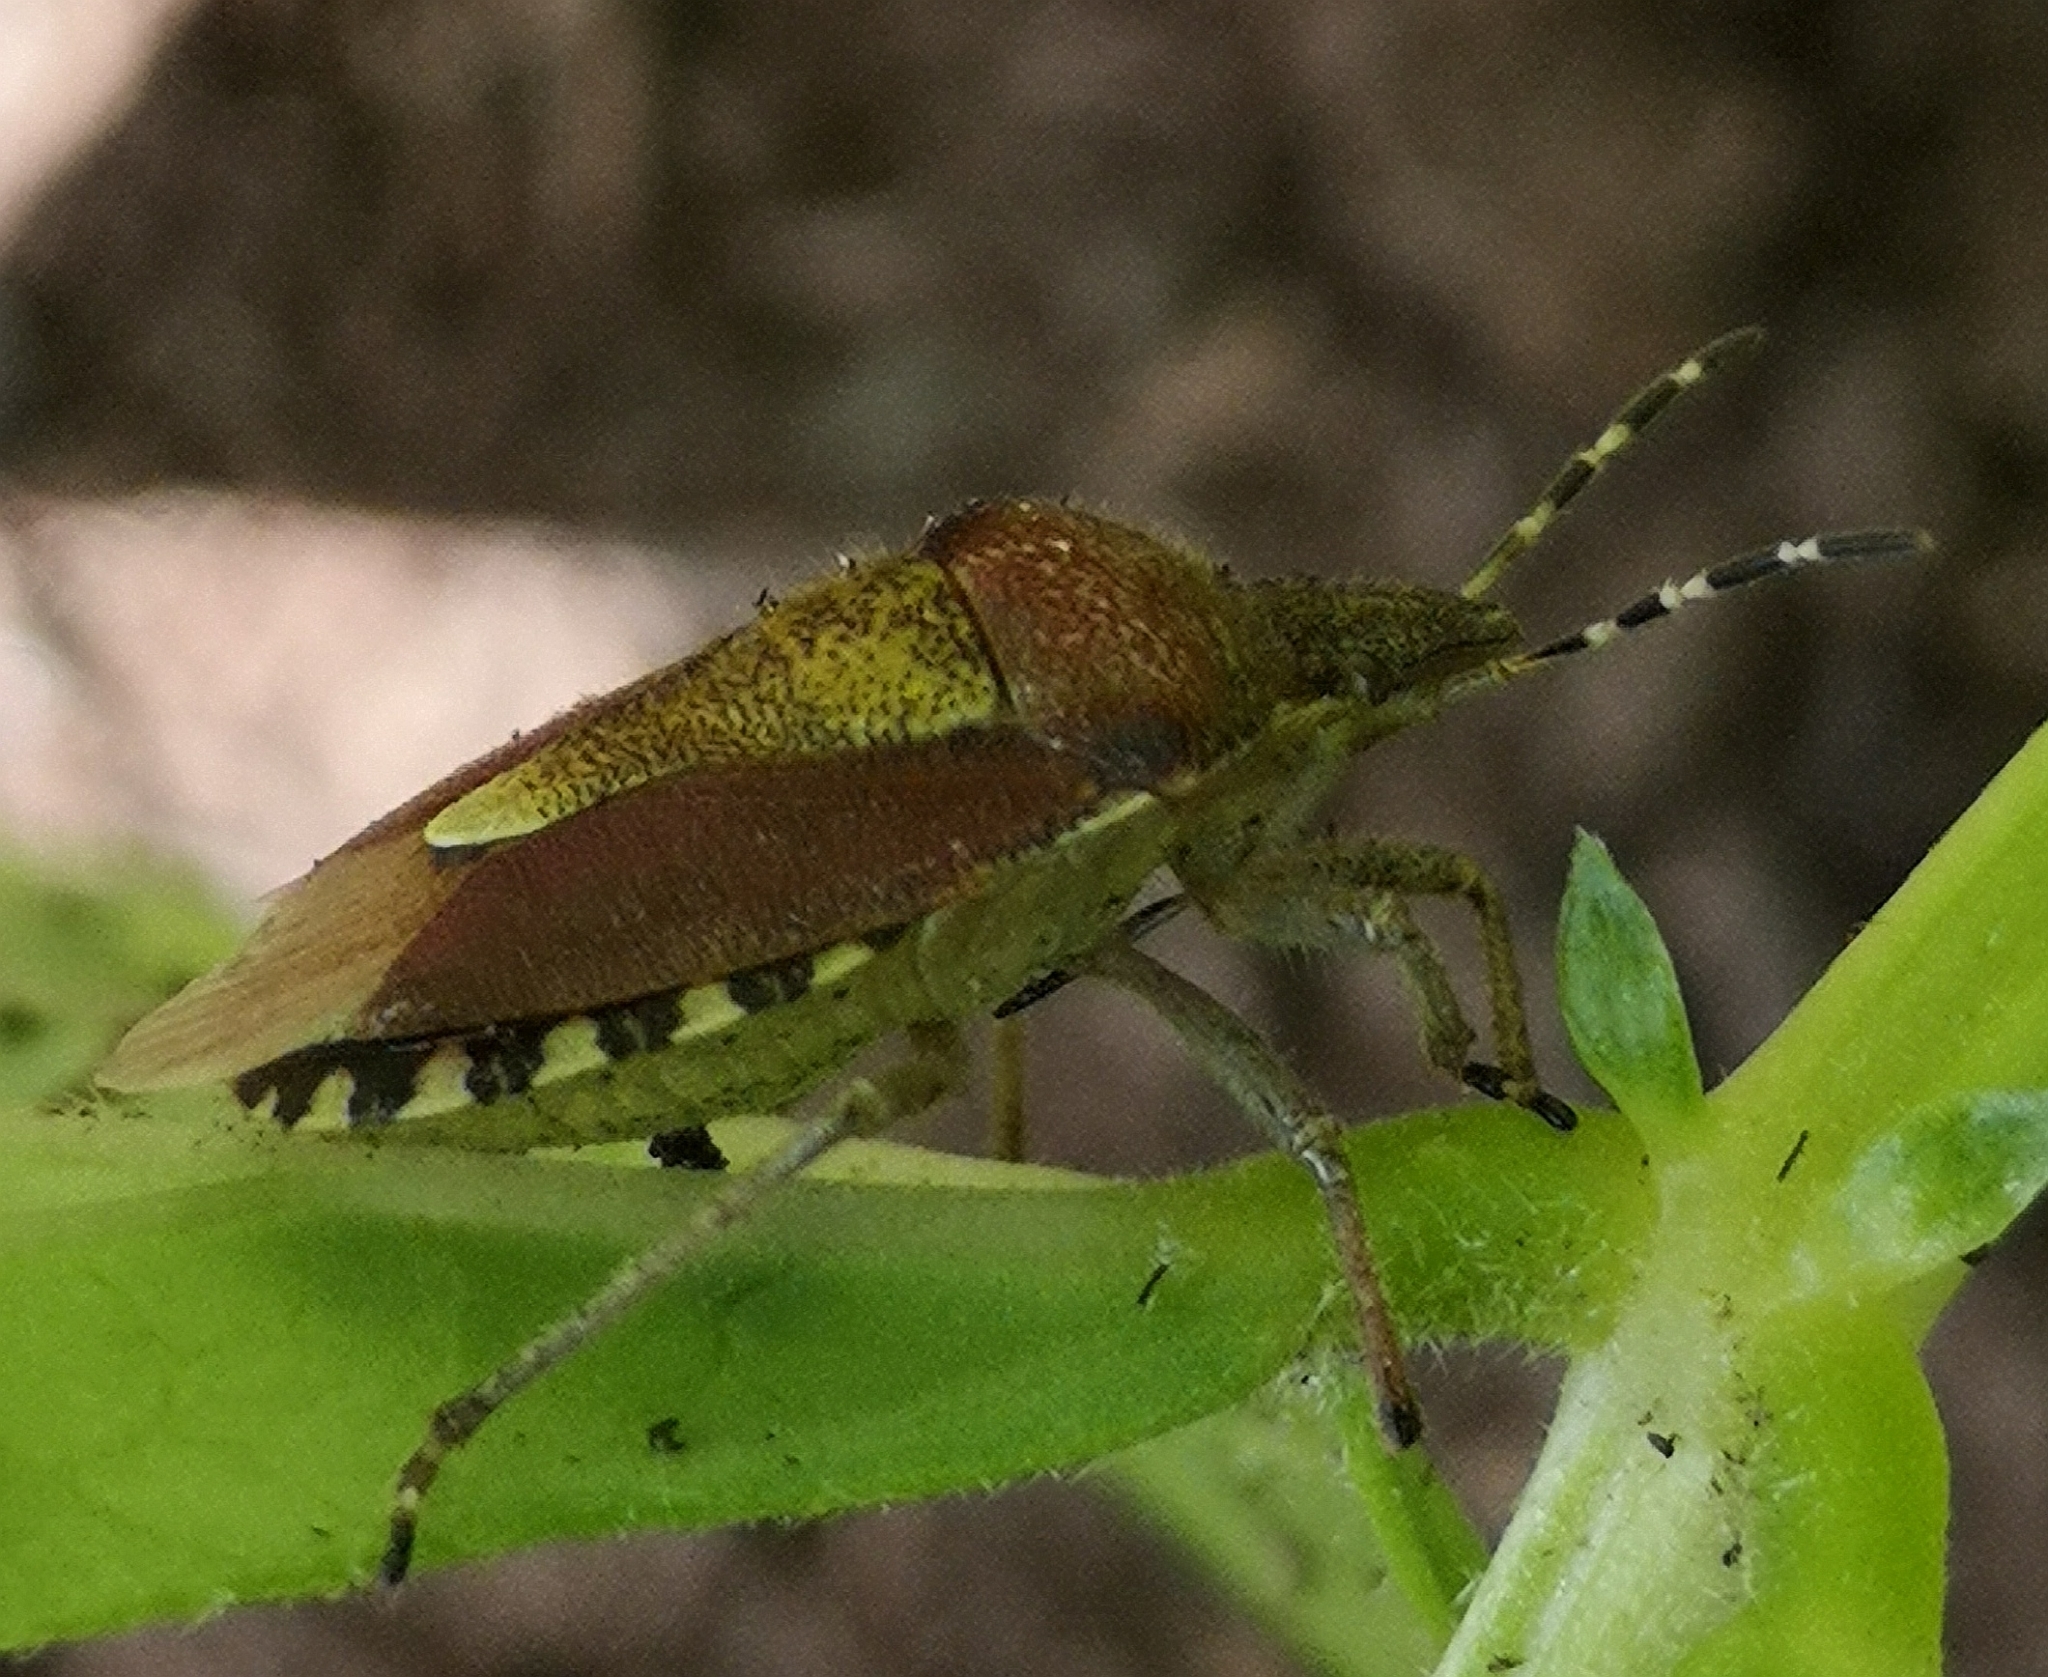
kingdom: Animalia
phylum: Arthropoda
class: Insecta
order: Hemiptera
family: Pentatomidae
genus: Dolycoris
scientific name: Dolycoris baccarum
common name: Sloe bug
